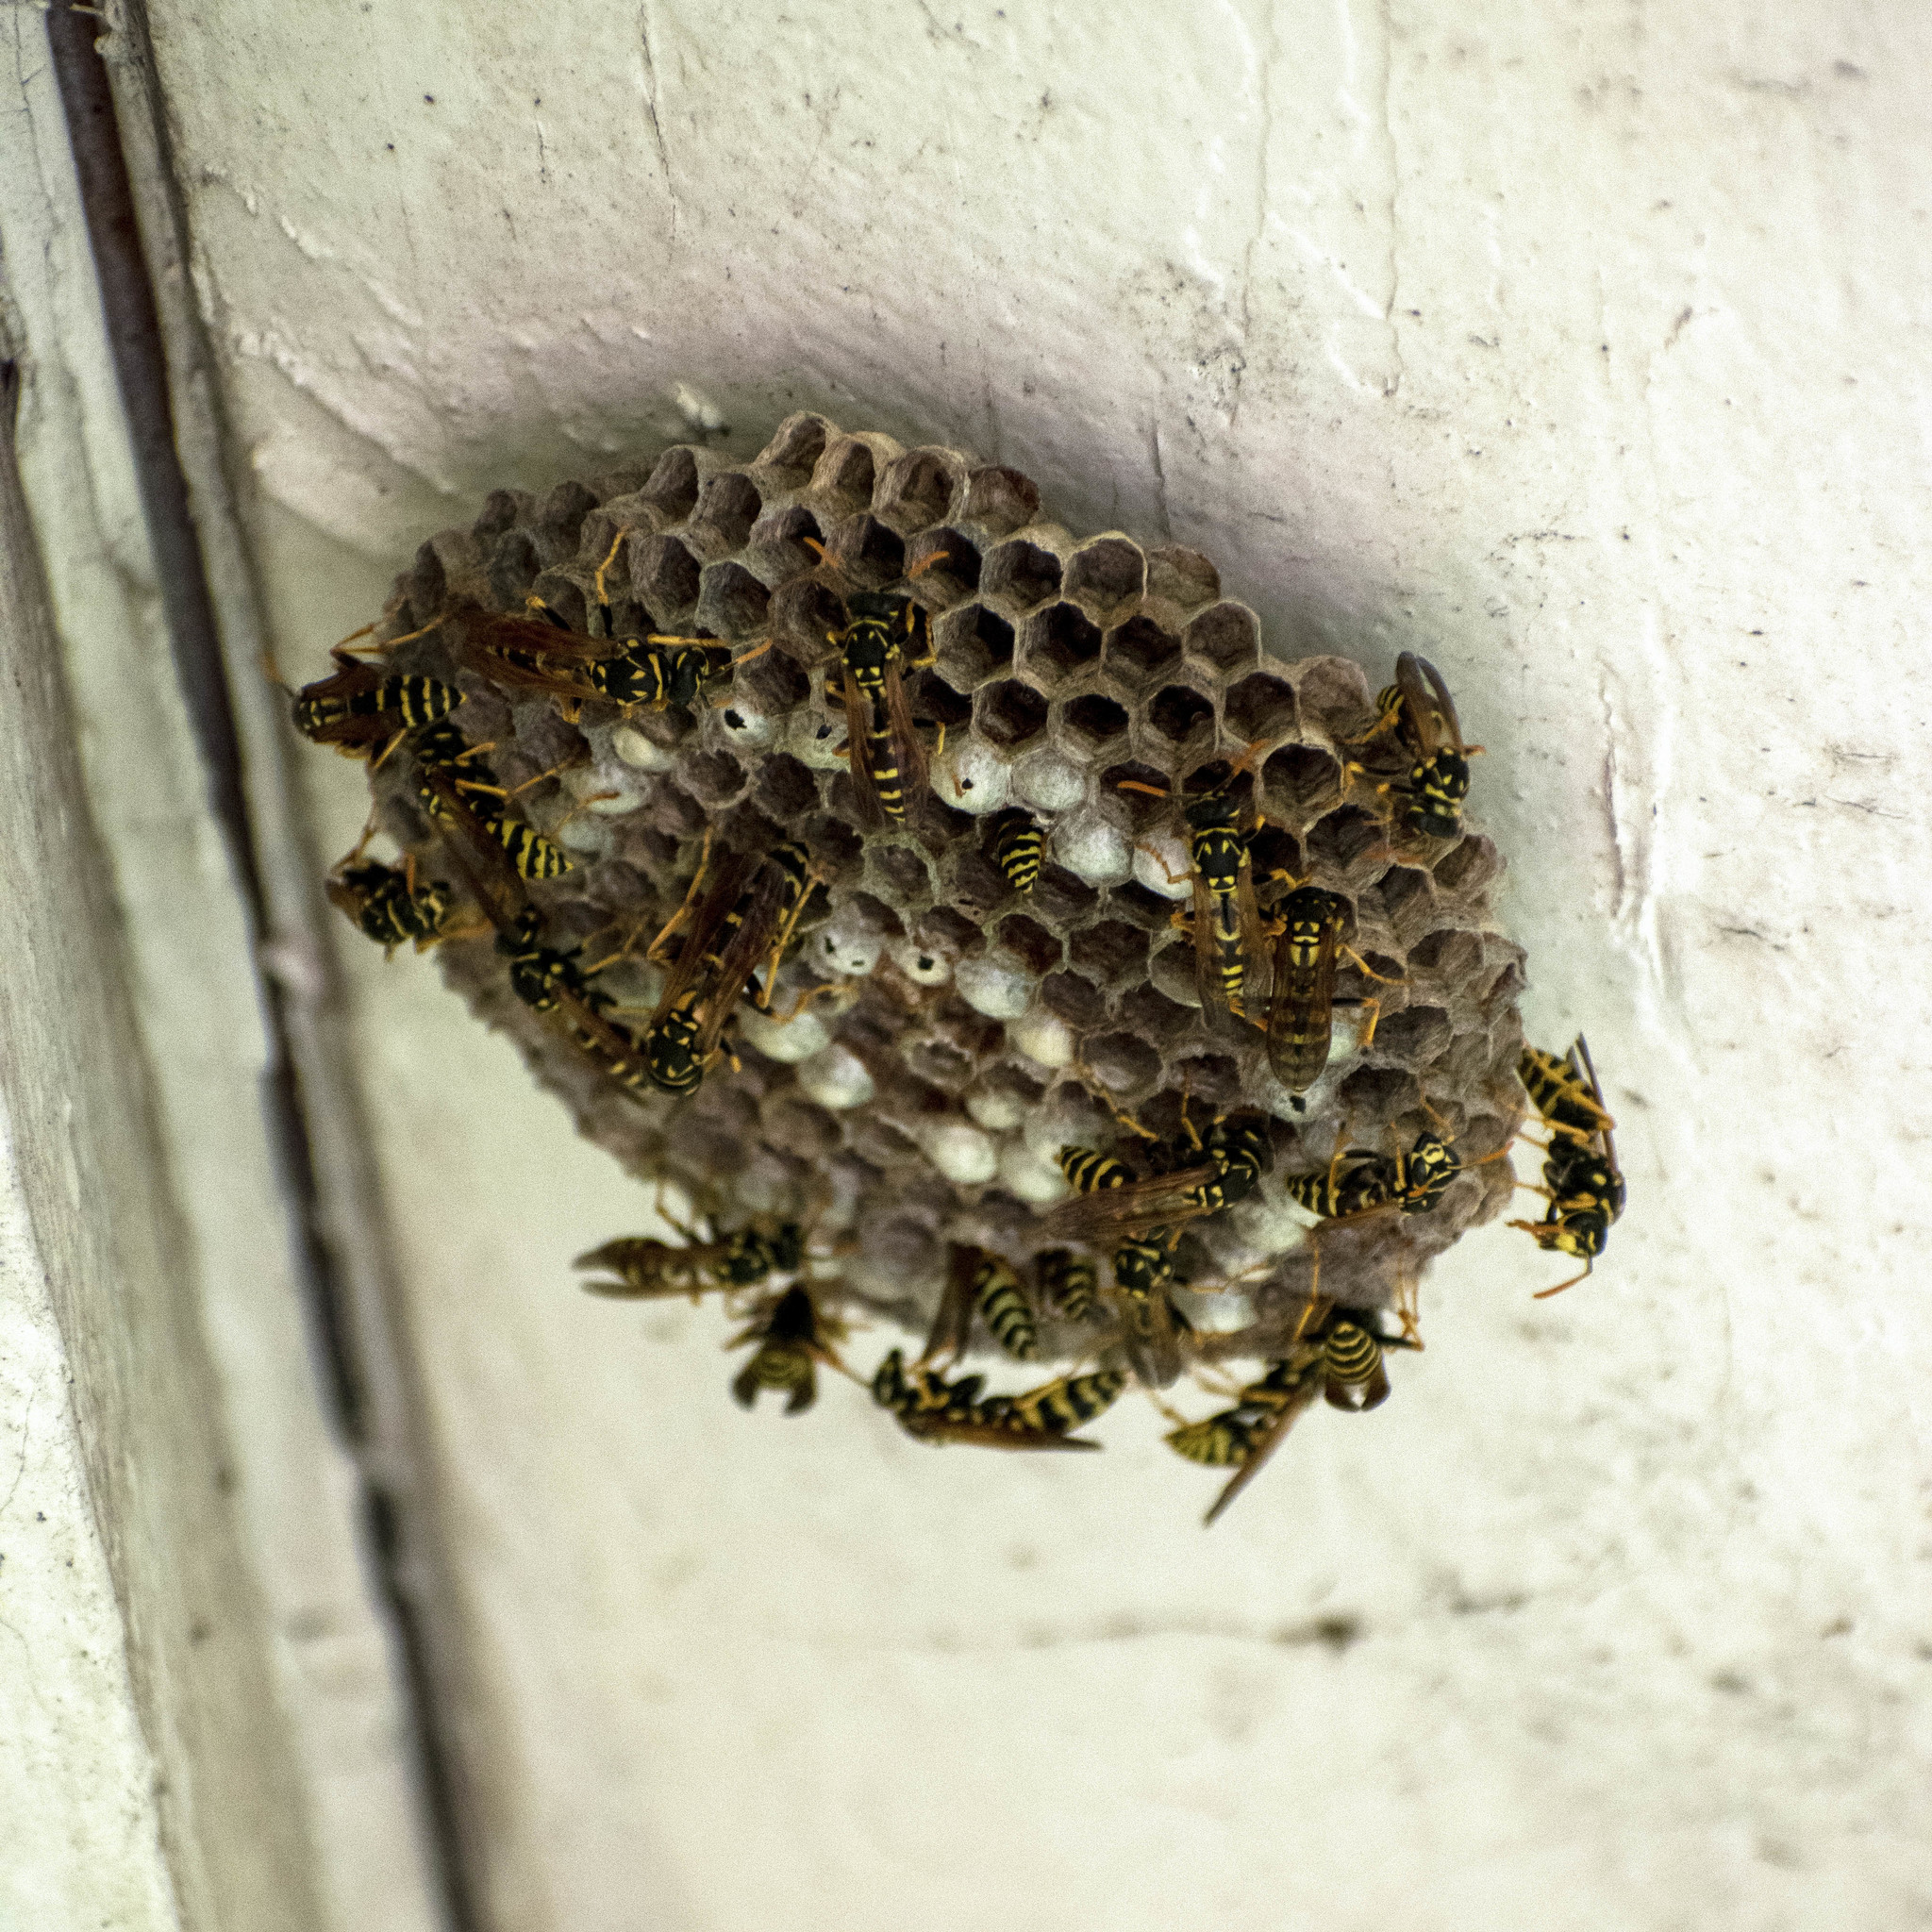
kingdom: Animalia
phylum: Arthropoda
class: Insecta
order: Hymenoptera
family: Eumenidae
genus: Polistes
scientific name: Polistes dominula
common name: Paper wasp
